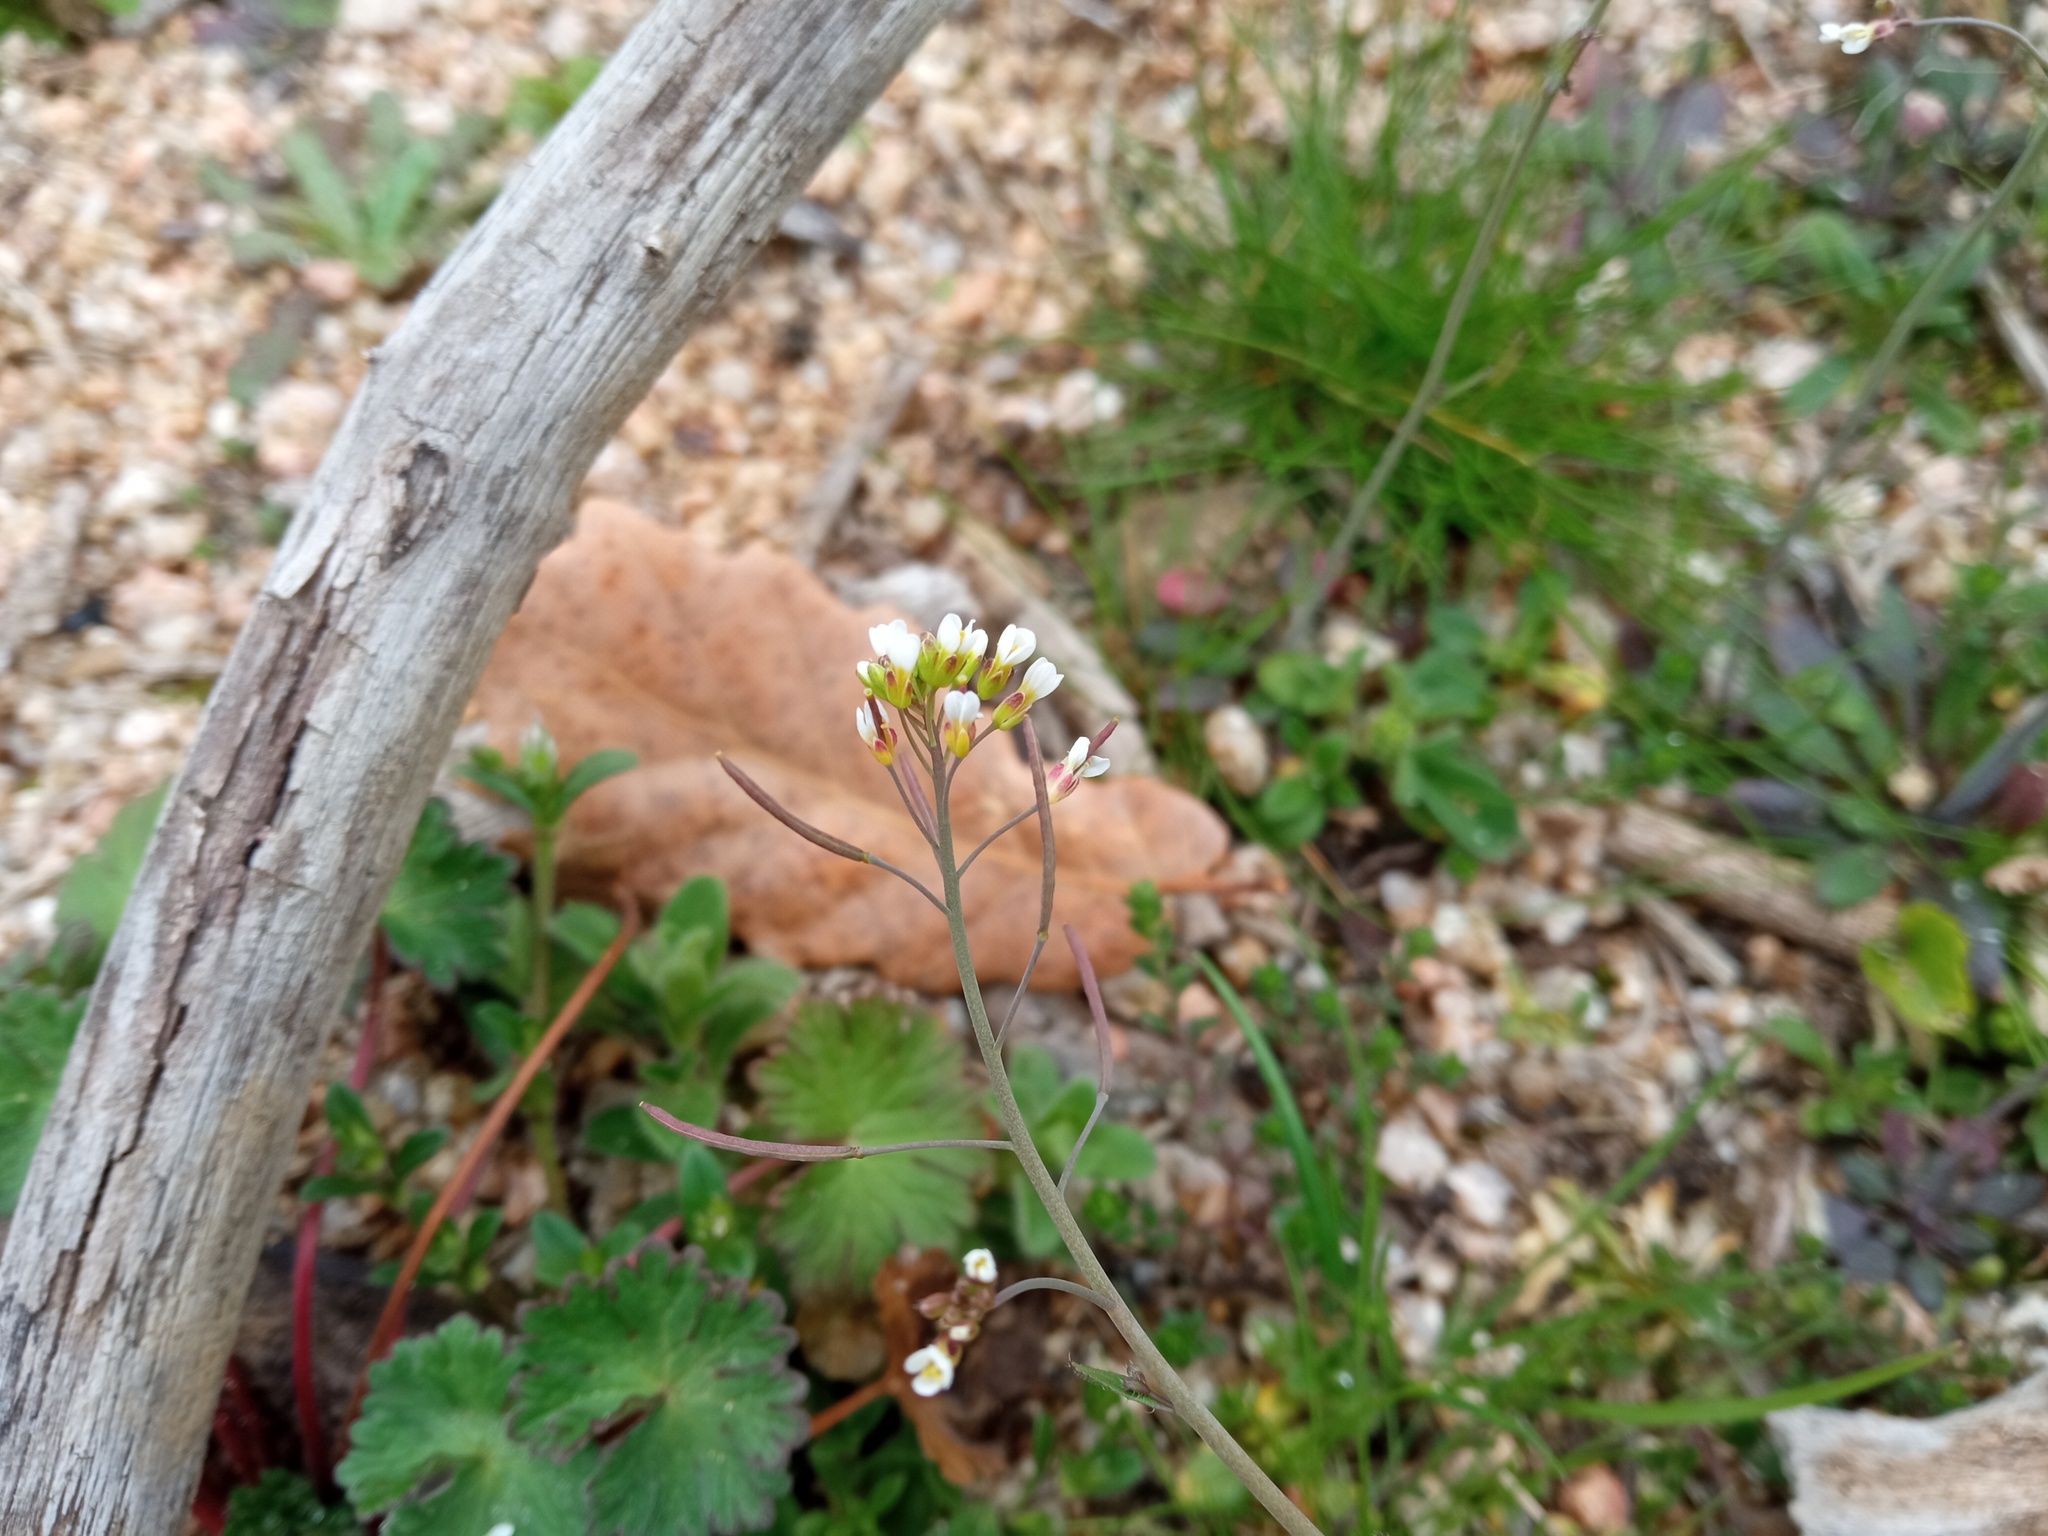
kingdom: Plantae
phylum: Tracheophyta
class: Magnoliopsida
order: Brassicales
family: Brassicaceae
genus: Arabidopsis
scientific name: Arabidopsis thaliana
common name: Thale cress
